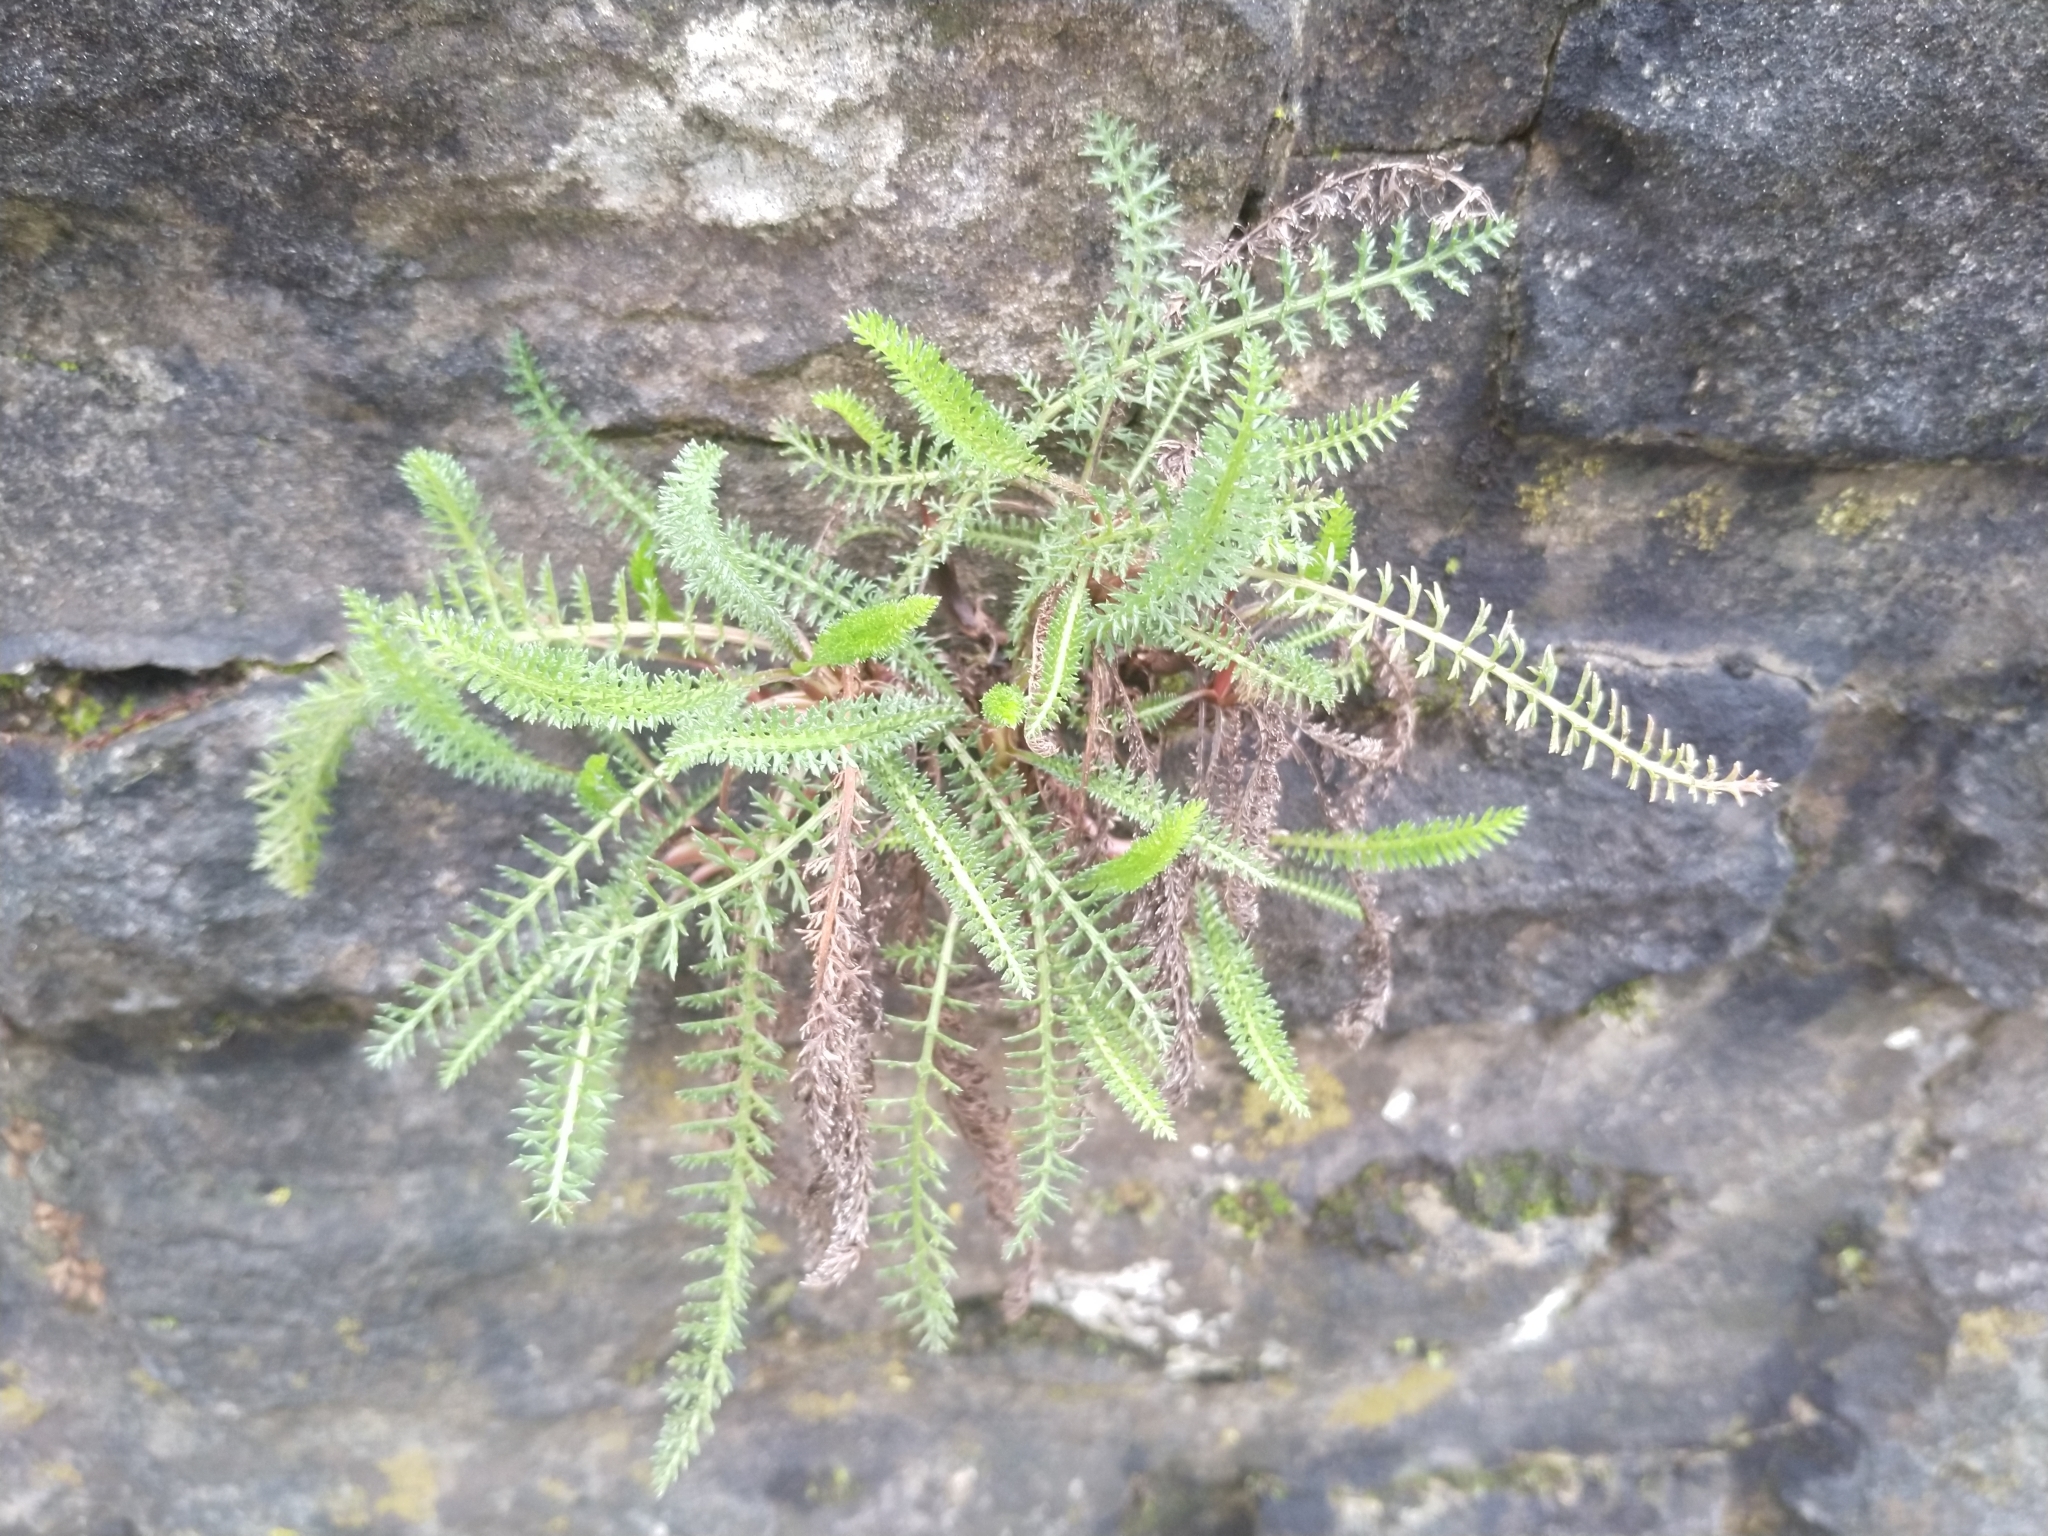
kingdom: Plantae
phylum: Tracheophyta
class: Magnoliopsida
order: Asterales
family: Asteraceae
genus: Achillea
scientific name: Achillea millefolium
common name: Yarrow
